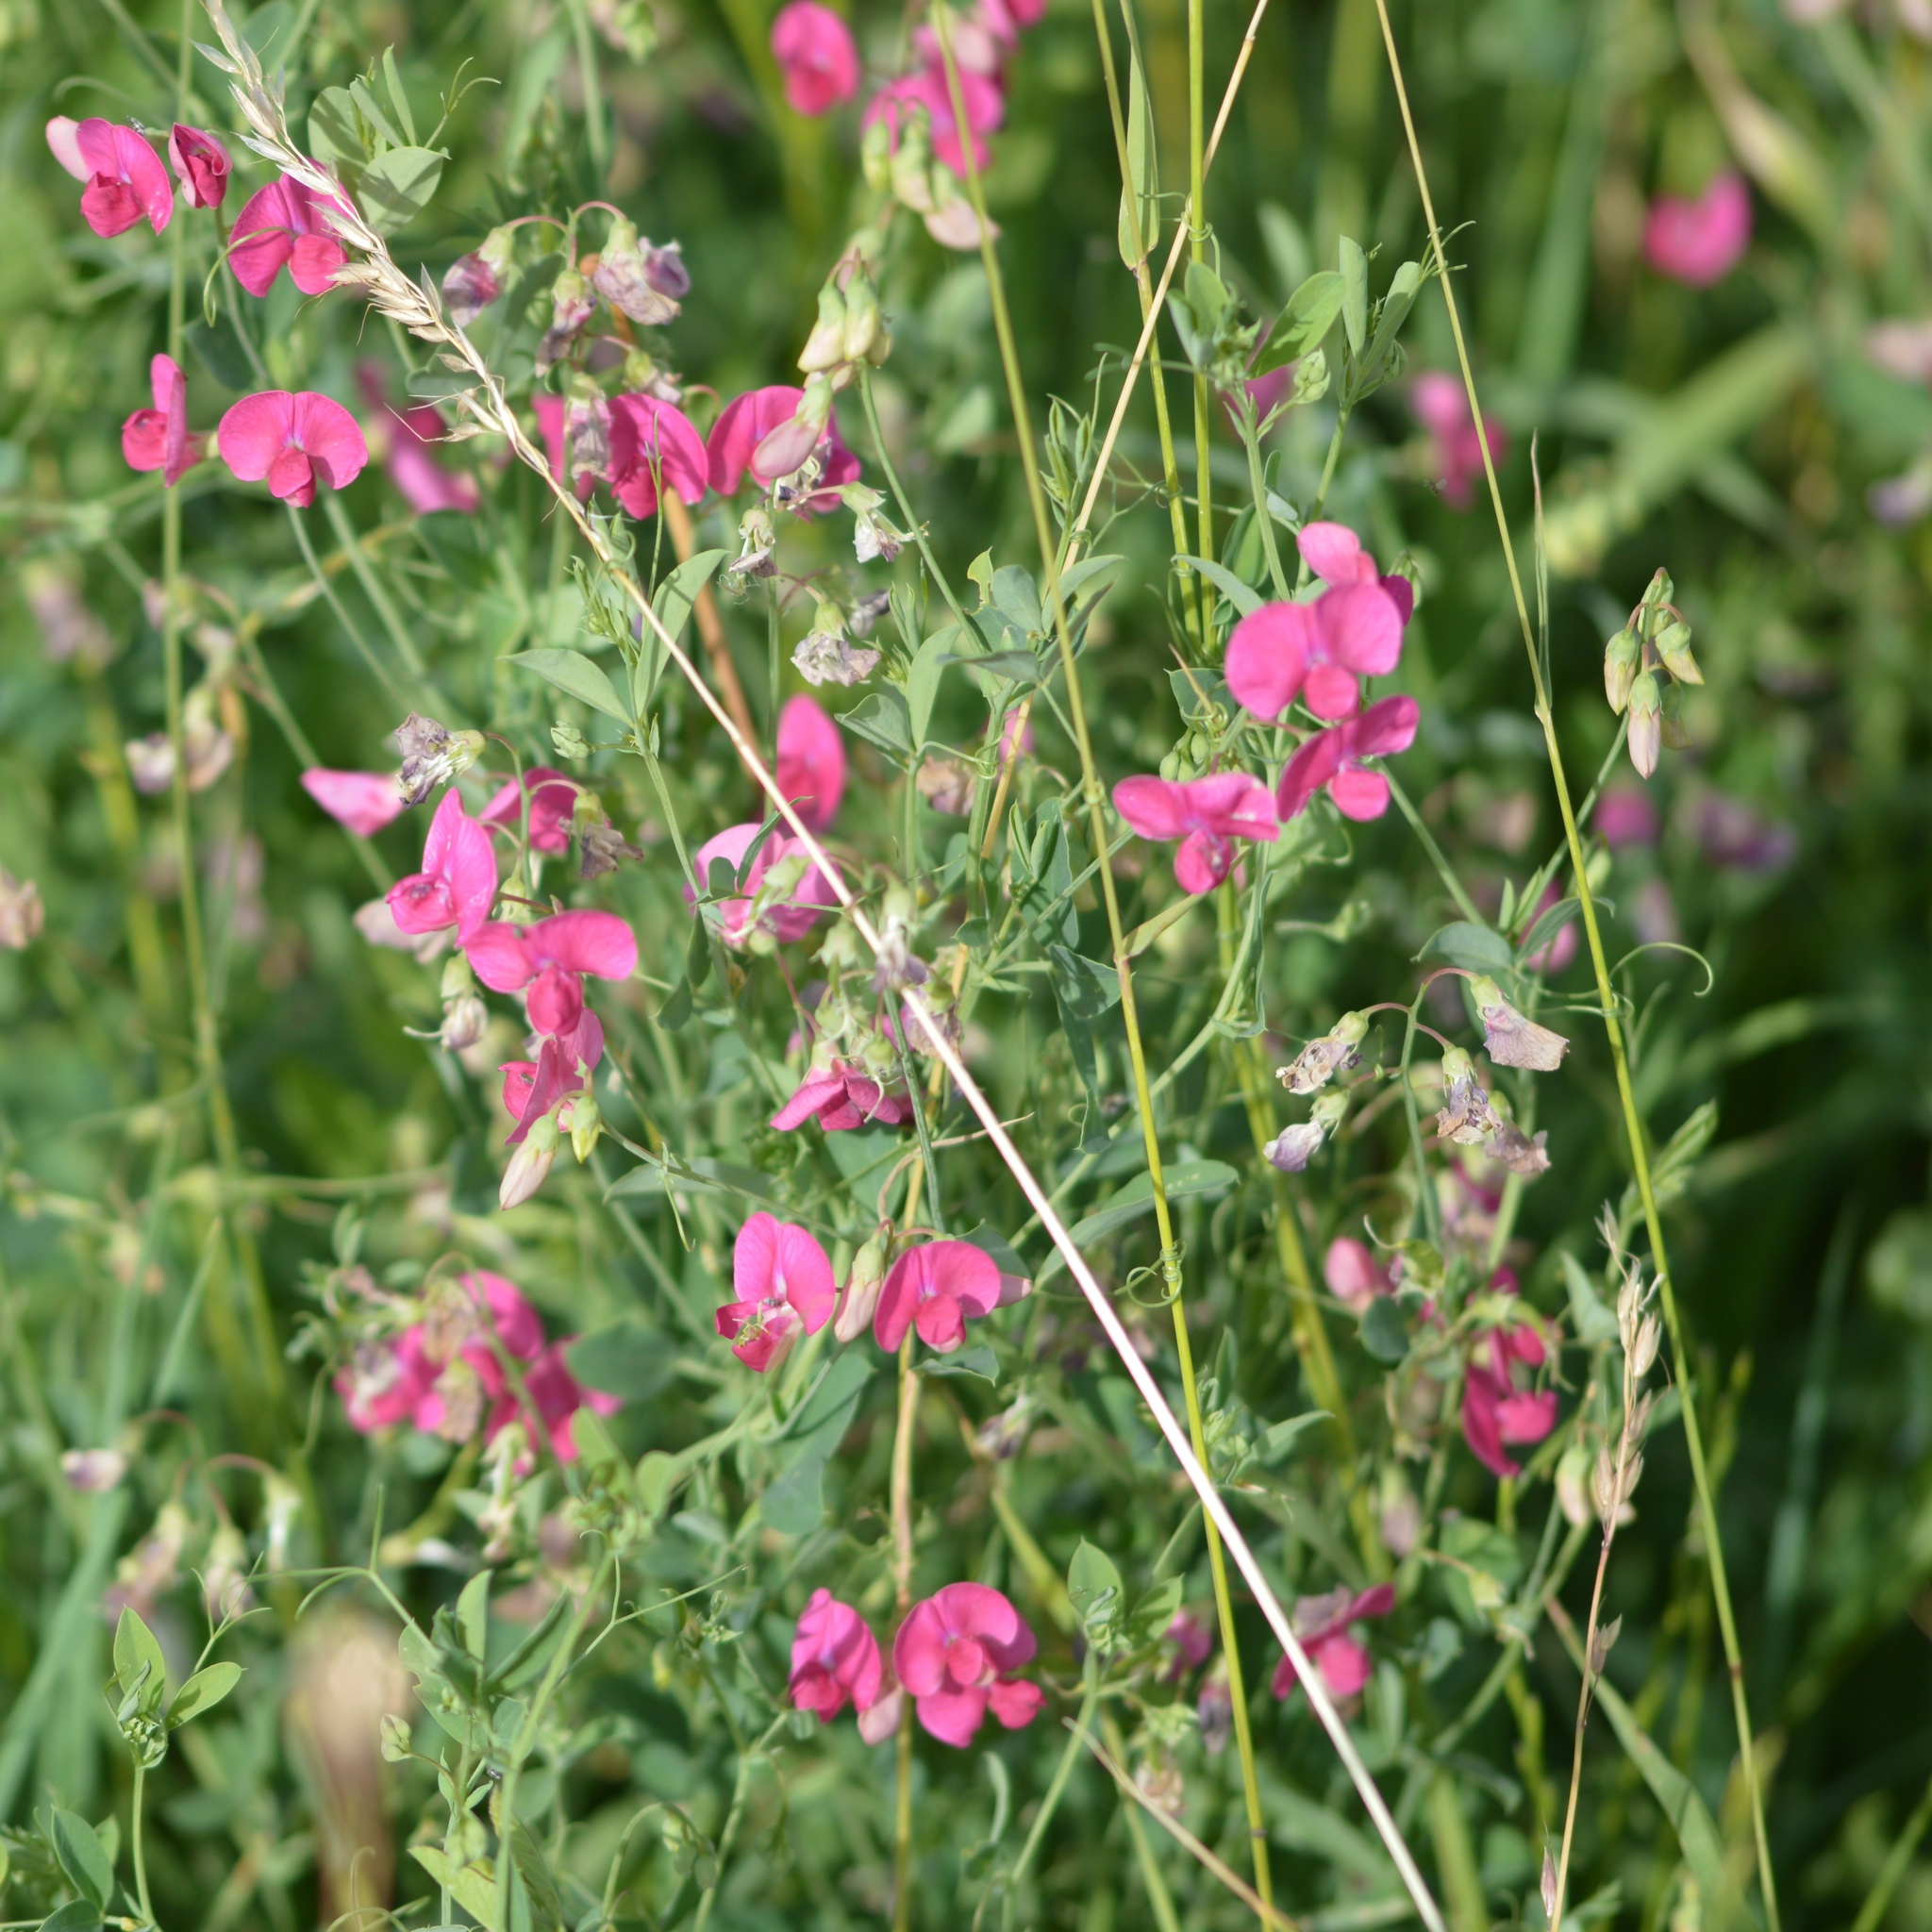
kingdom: Plantae
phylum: Tracheophyta
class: Magnoliopsida
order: Fabales
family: Fabaceae
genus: Lathyrus
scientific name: Lathyrus tuberosus
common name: Tuberous pea
